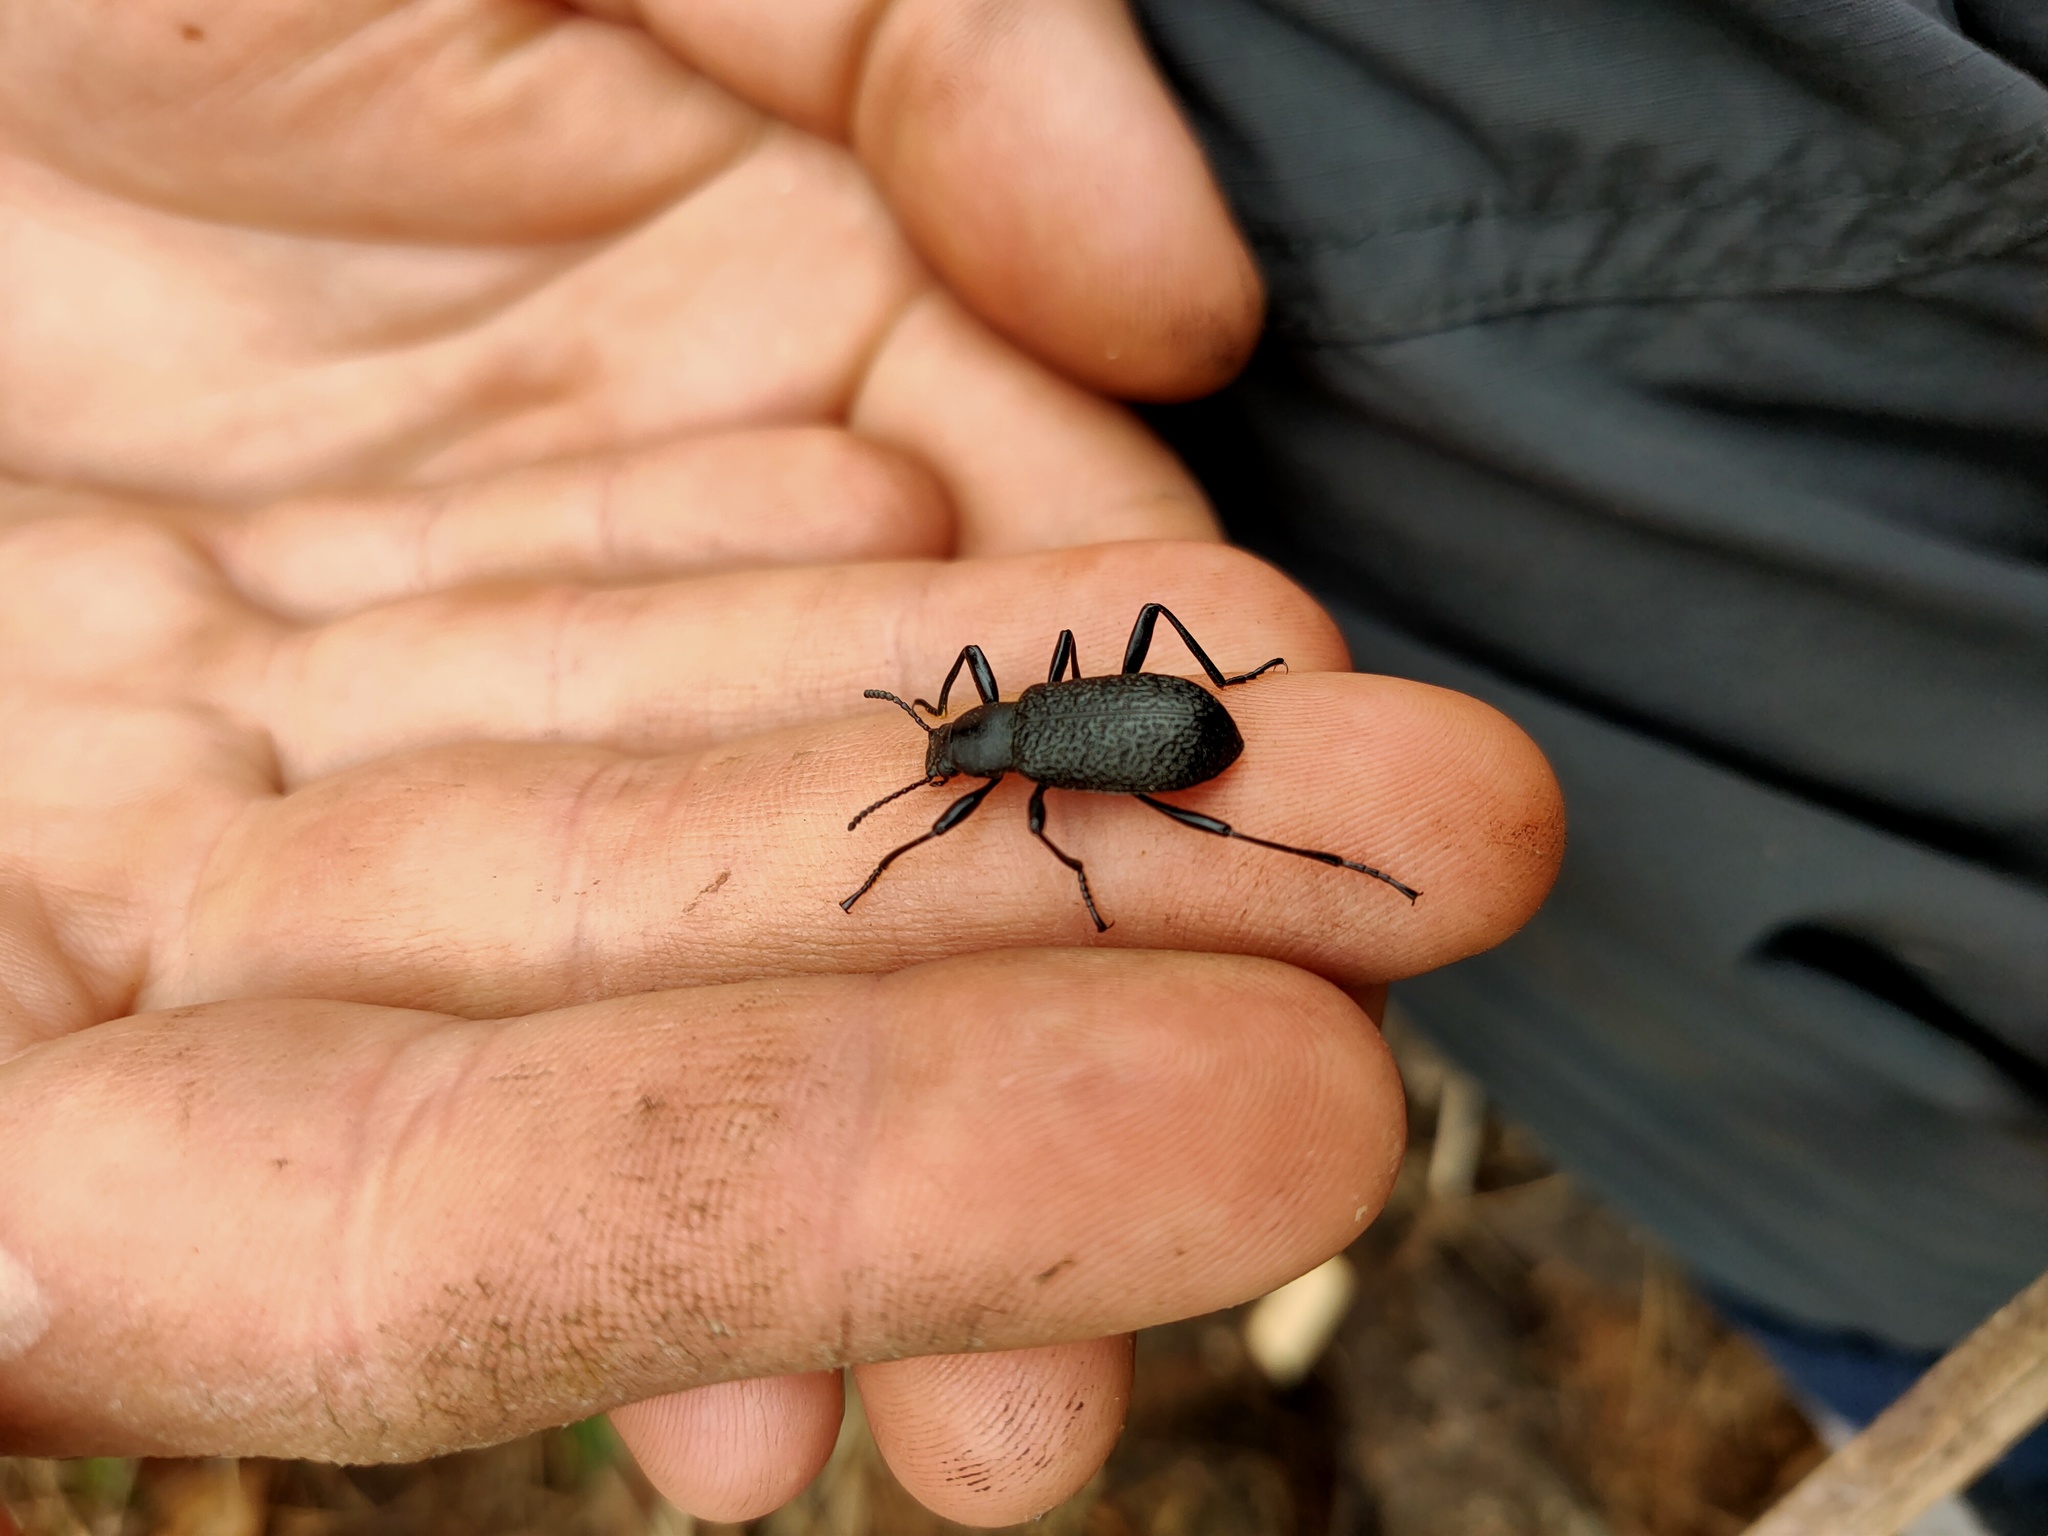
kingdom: Animalia
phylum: Arthropoda
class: Insecta
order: Coleoptera
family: Tenebrionidae
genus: Upis
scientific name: Upis ceramboides
